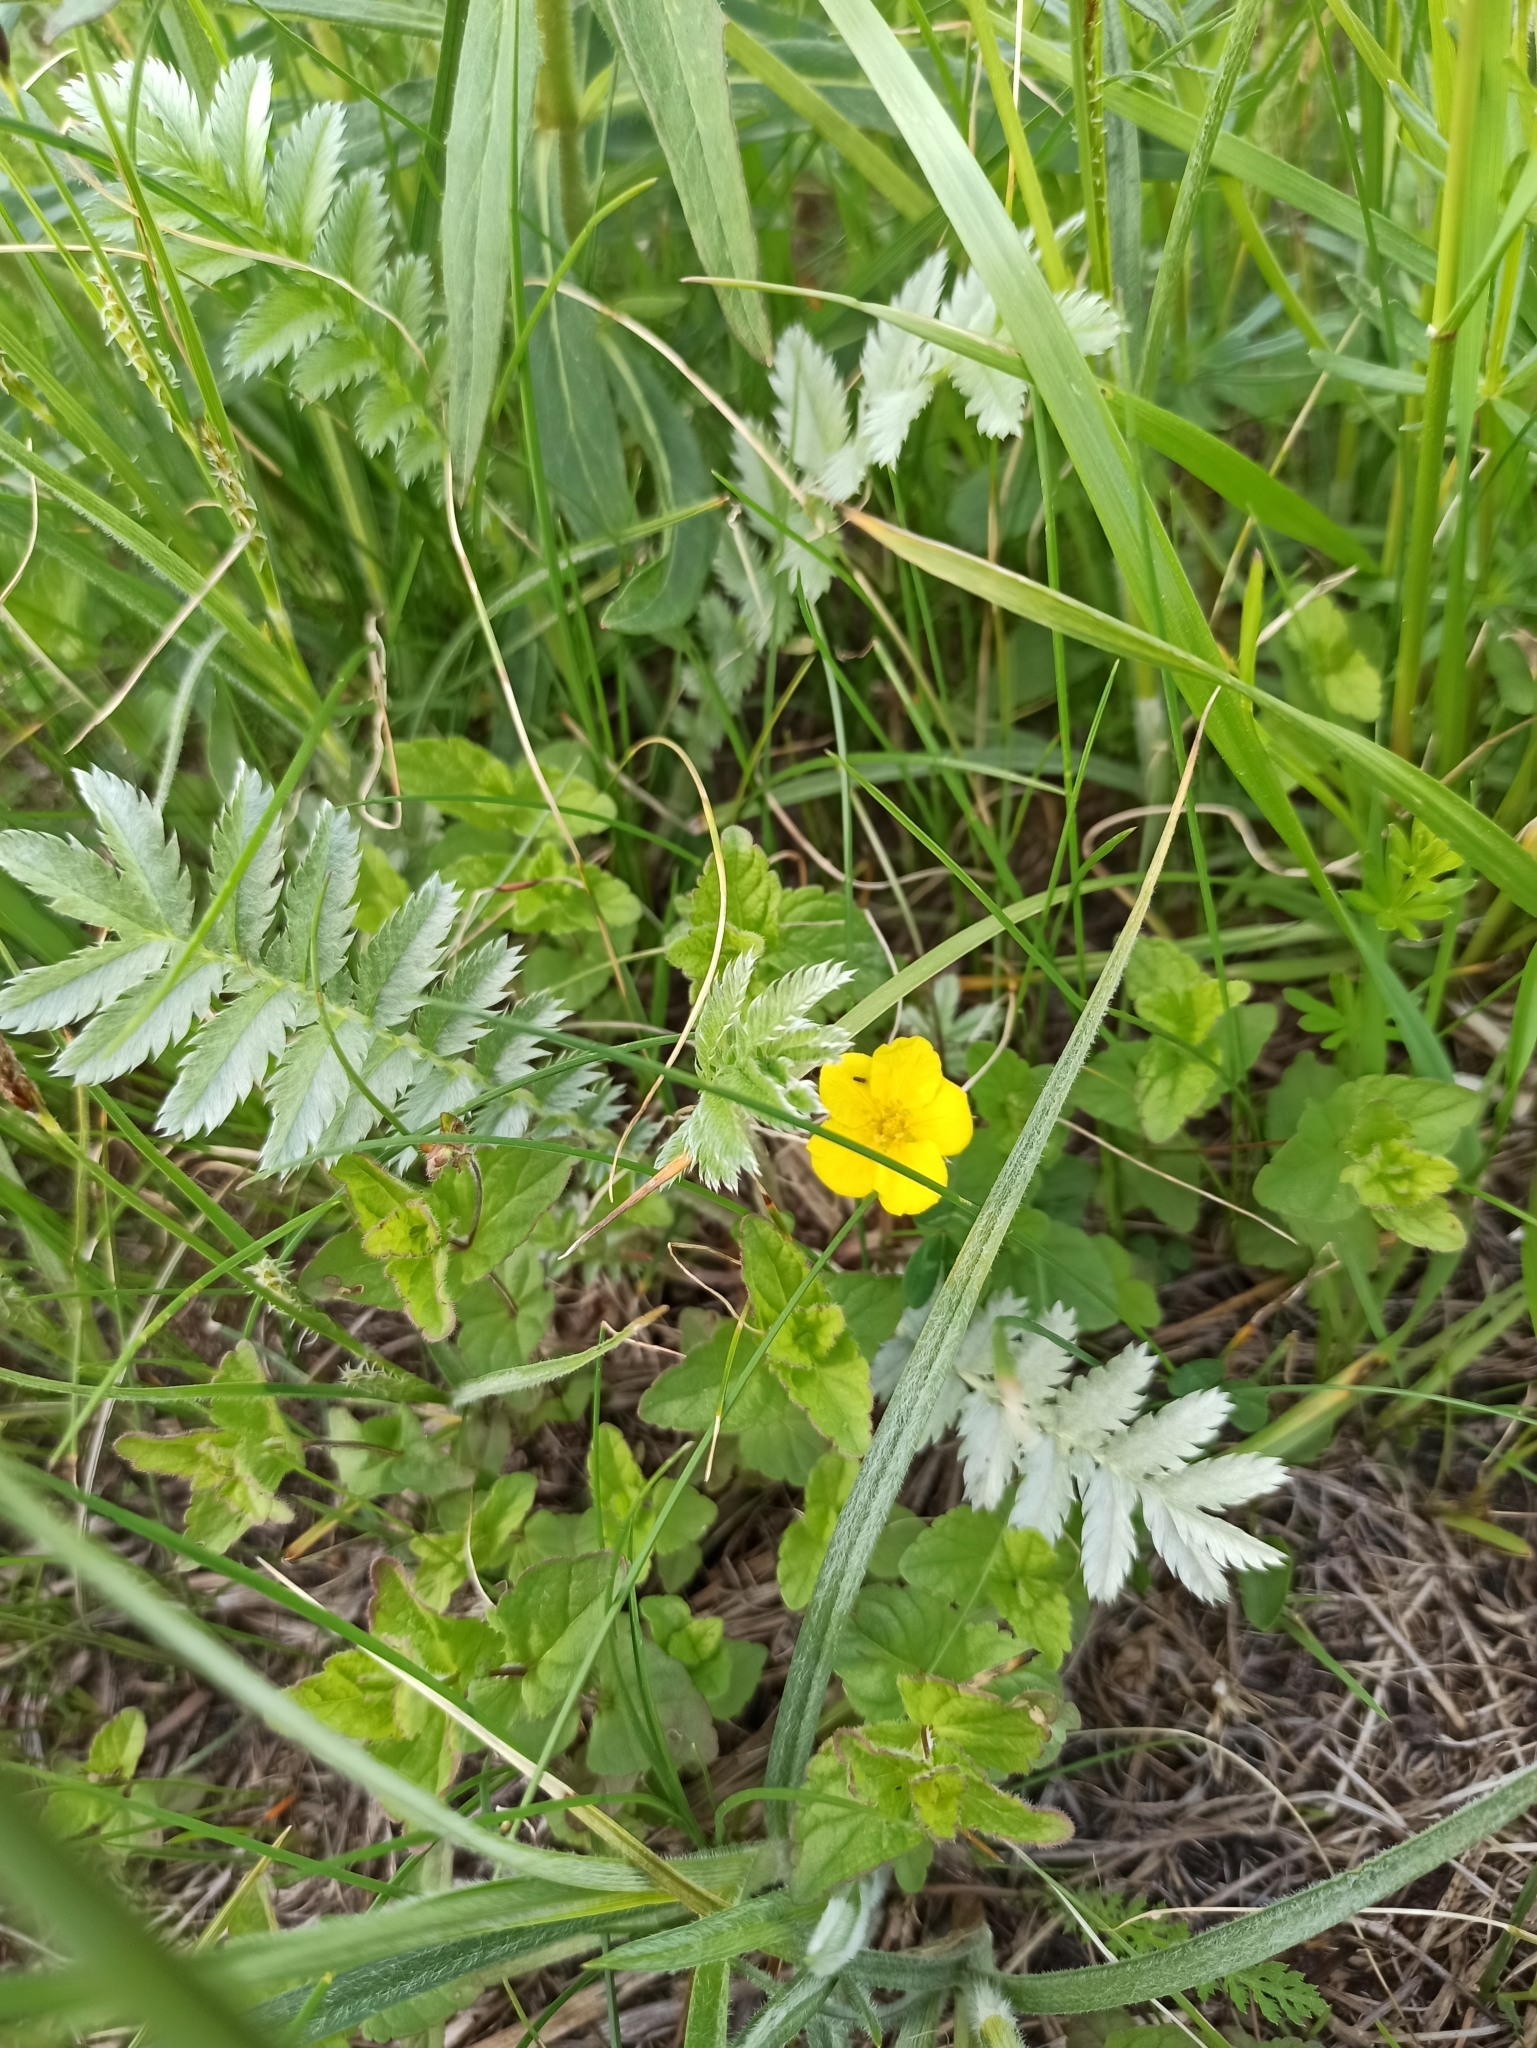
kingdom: Plantae
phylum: Tracheophyta
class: Magnoliopsida
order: Rosales
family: Rosaceae
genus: Argentina
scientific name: Argentina anserina
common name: Common silverweed
